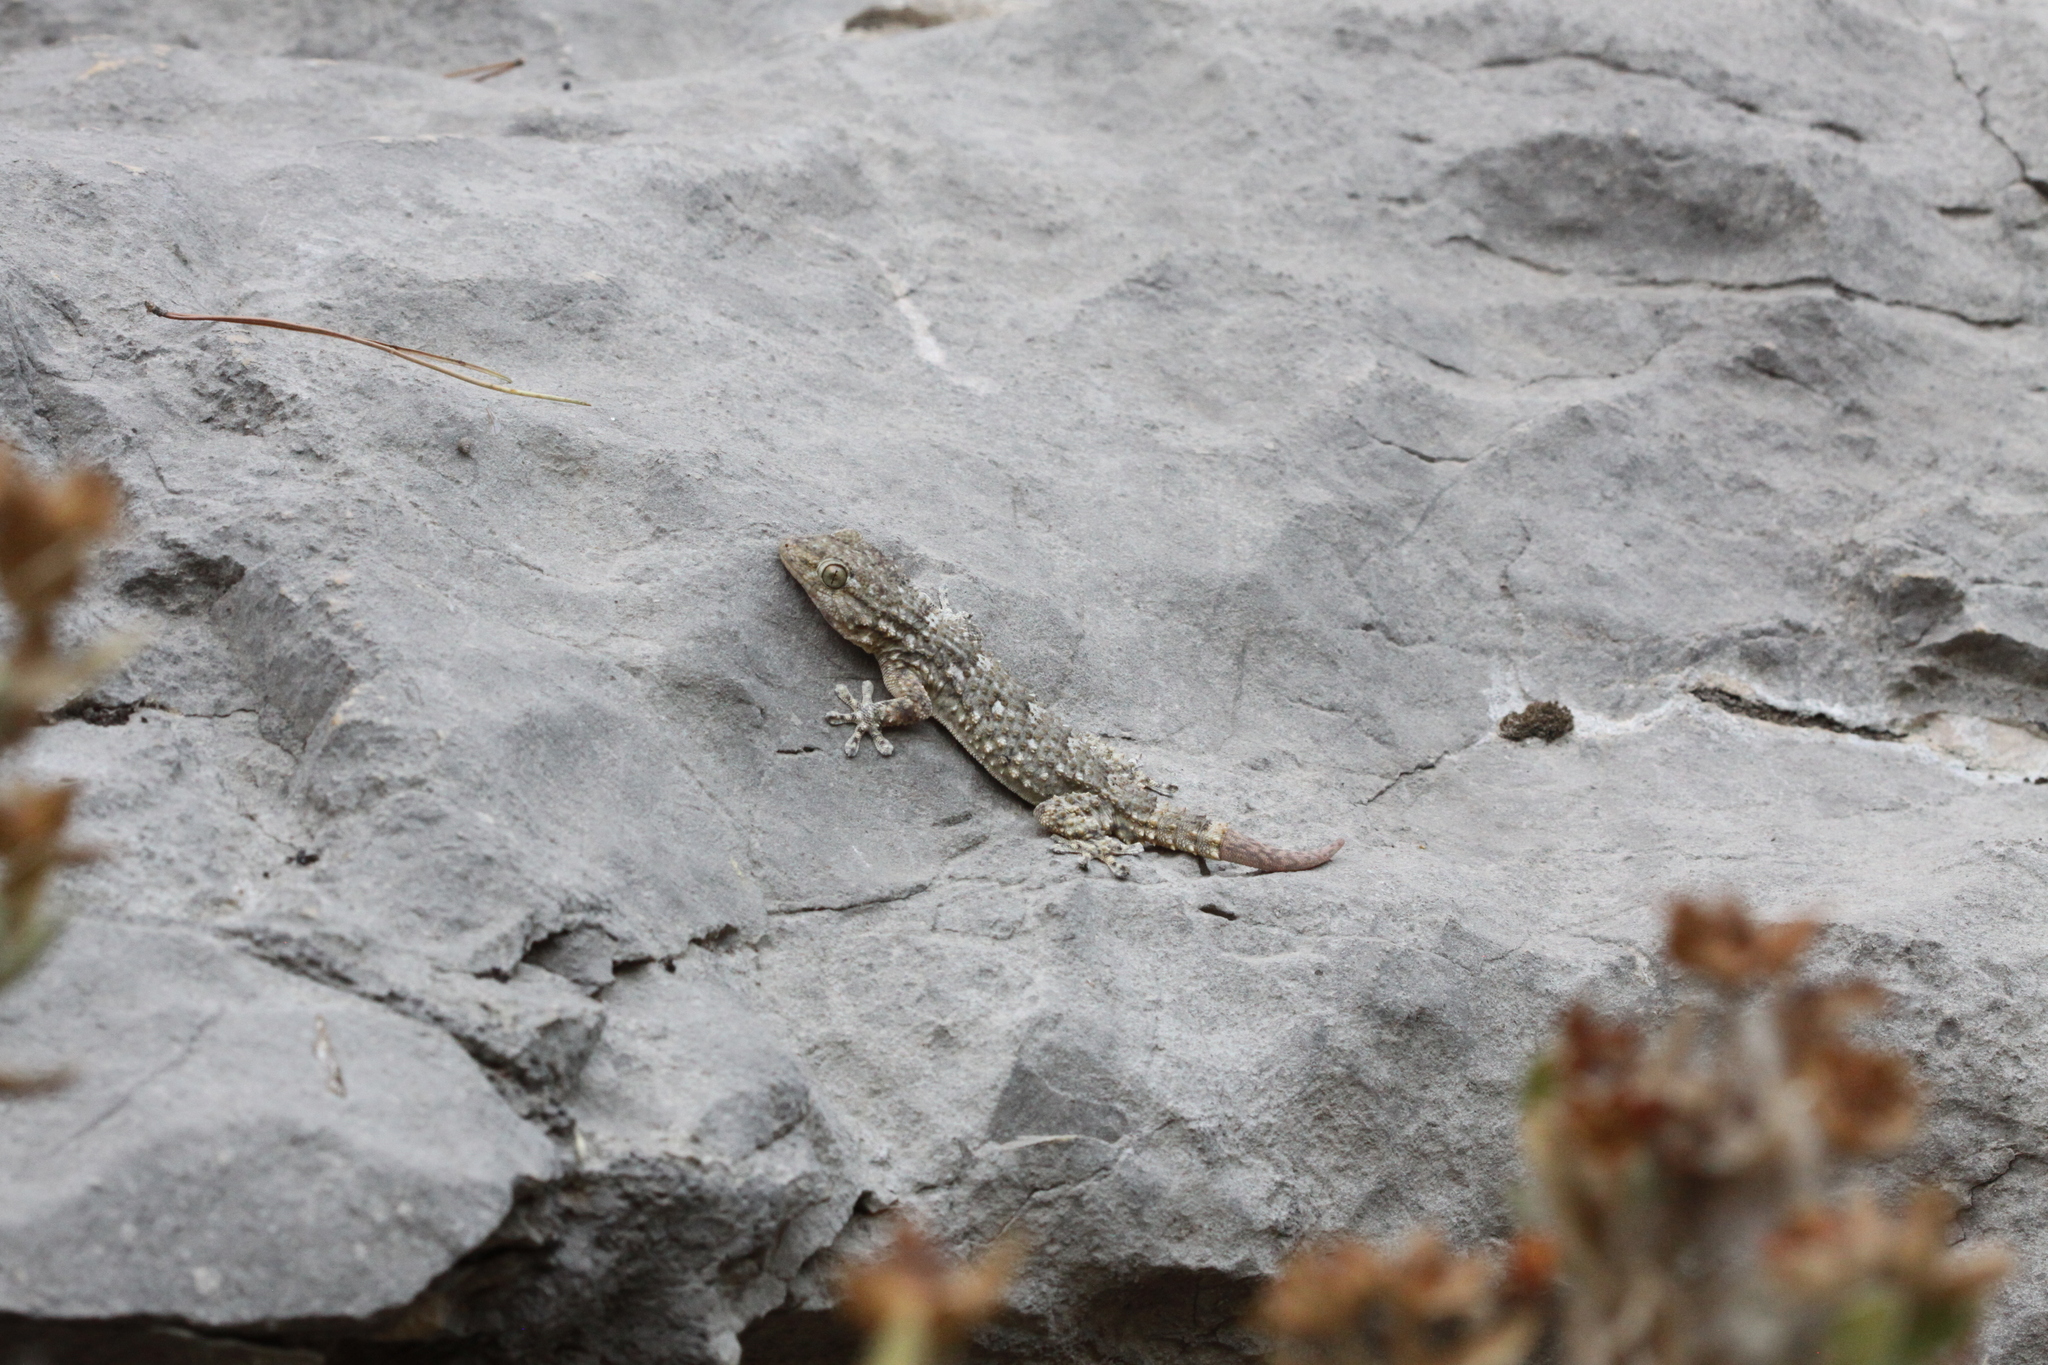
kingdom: Animalia
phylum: Chordata
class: Squamata
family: Phyllodactylidae
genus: Tarentola
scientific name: Tarentola mauritanica
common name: Moorish gecko
